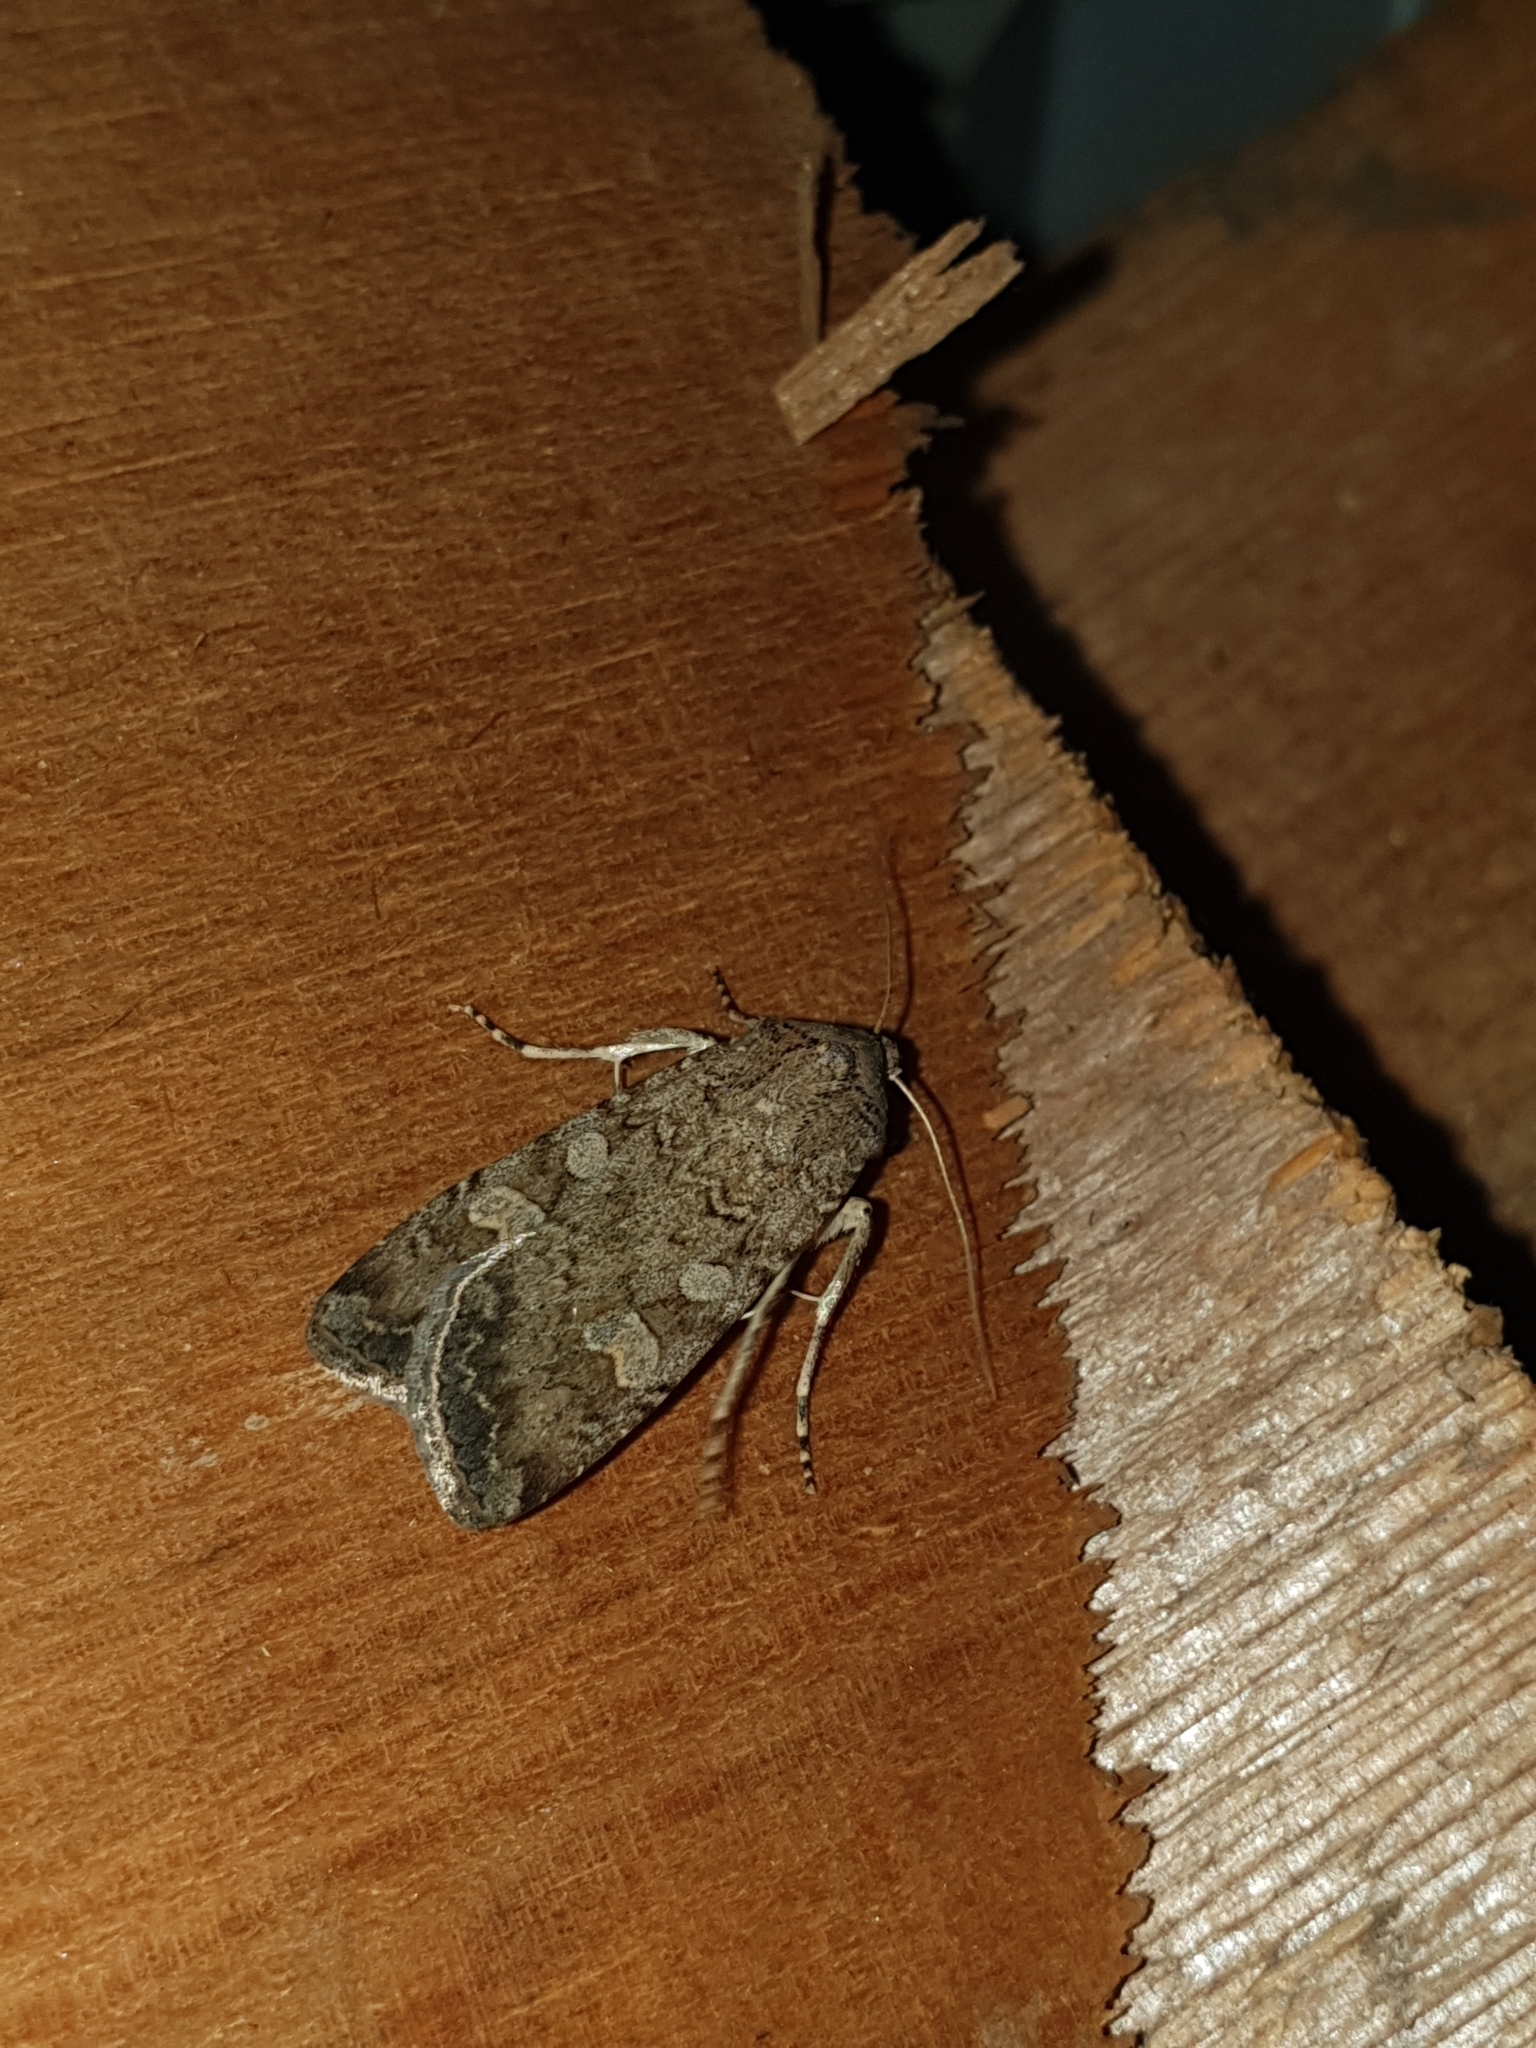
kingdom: Animalia
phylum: Arthropoda
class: Insecta
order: Lepidoptera
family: Noctuidae
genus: Euxoa
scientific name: Euxoa conspicua
